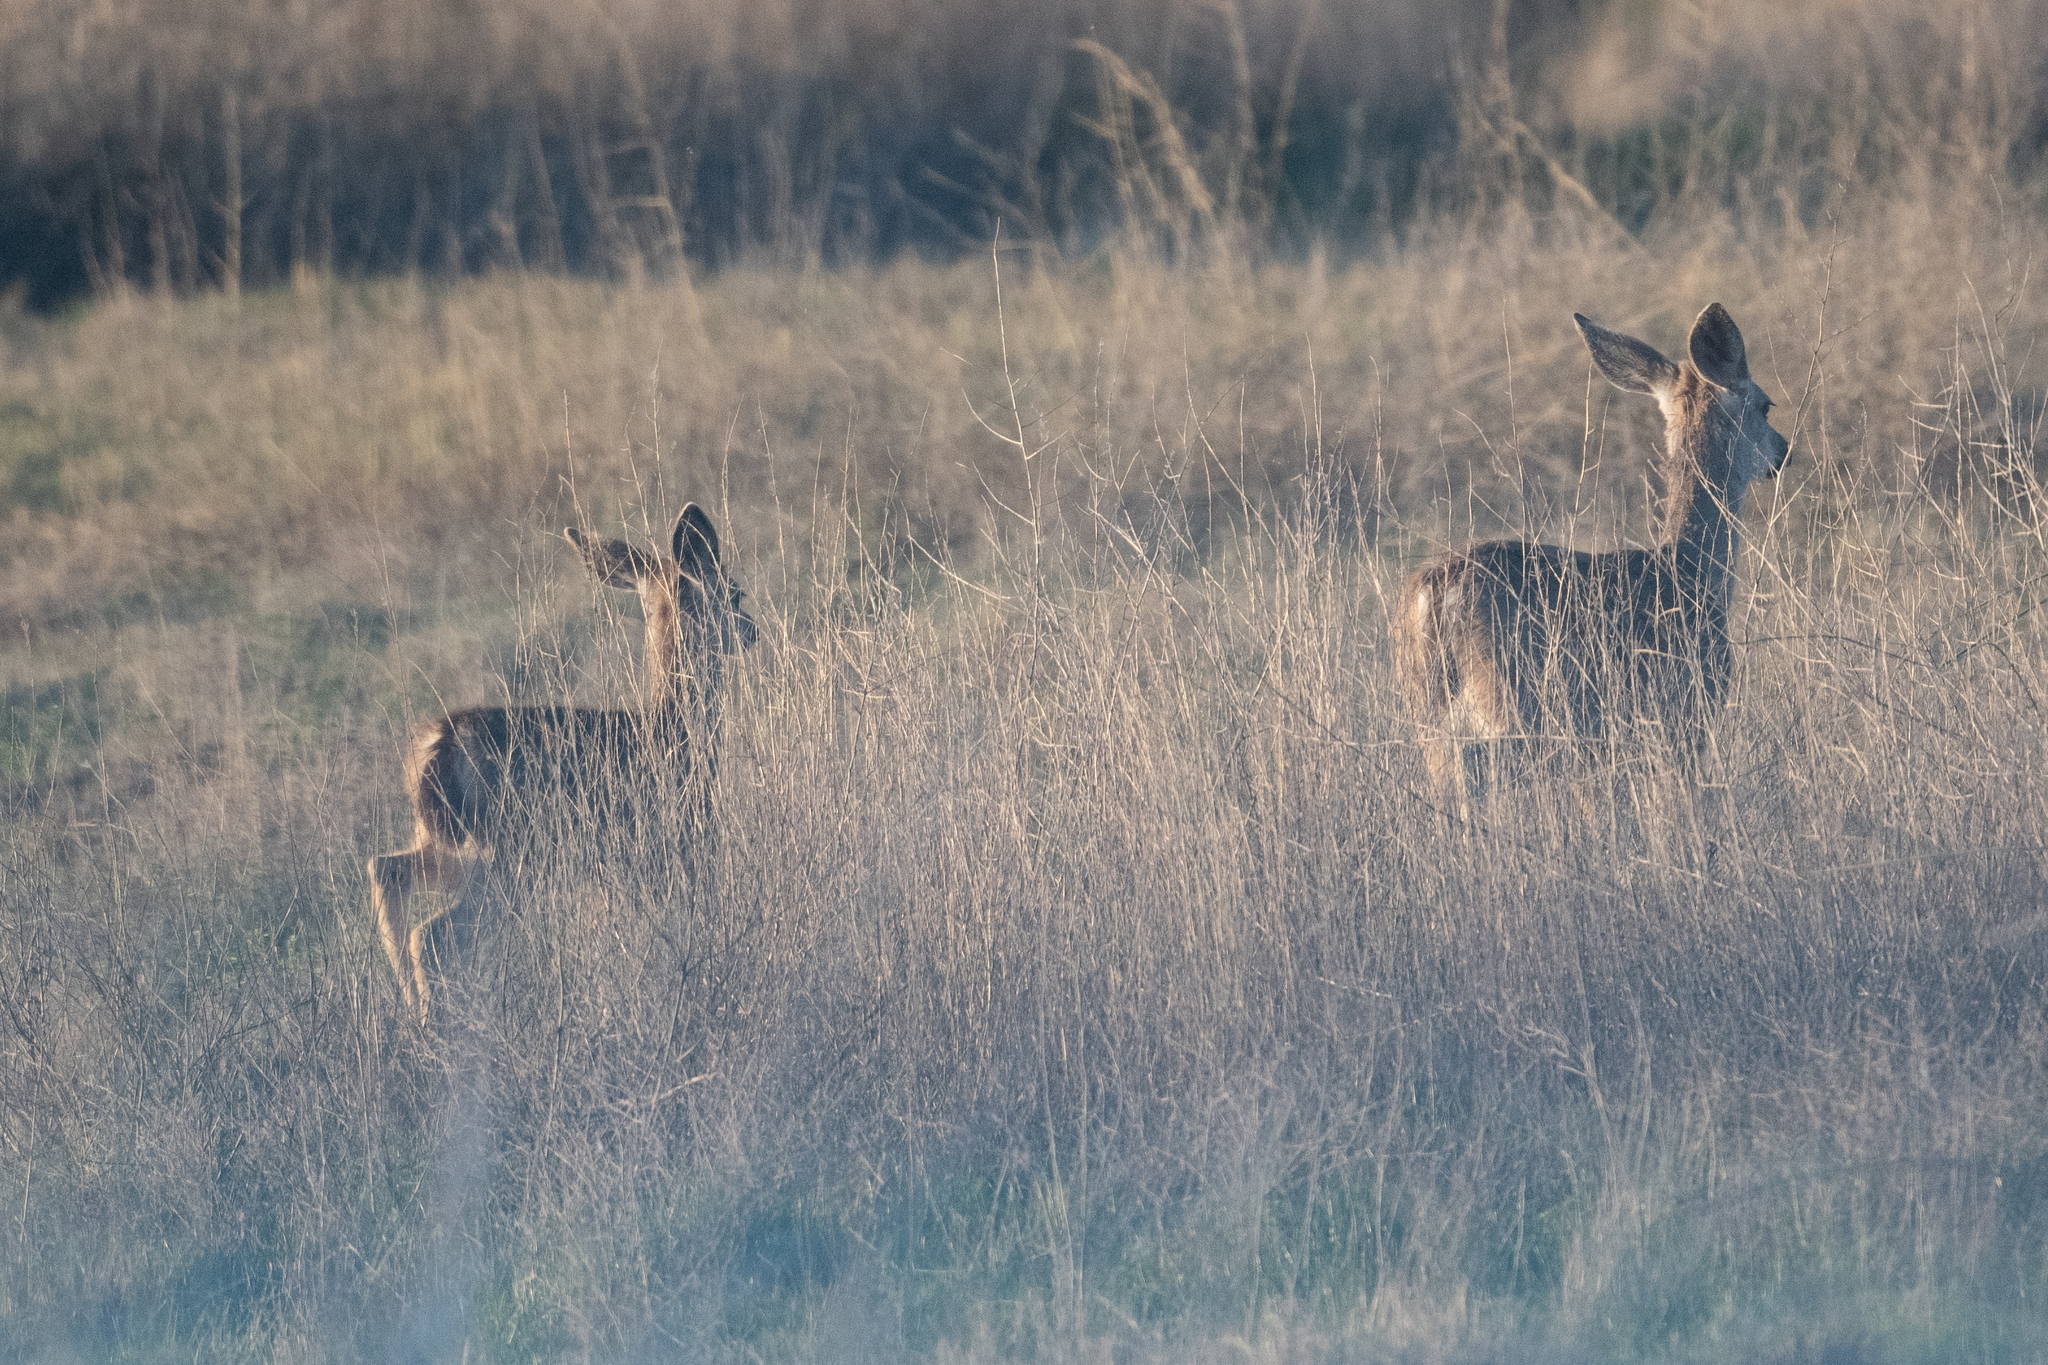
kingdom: Animalia
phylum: Chordata
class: Mammalia
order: Artiodactyla
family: Cervidae
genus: Odocoileus
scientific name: Odocoileus hemionus
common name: Mule deer
